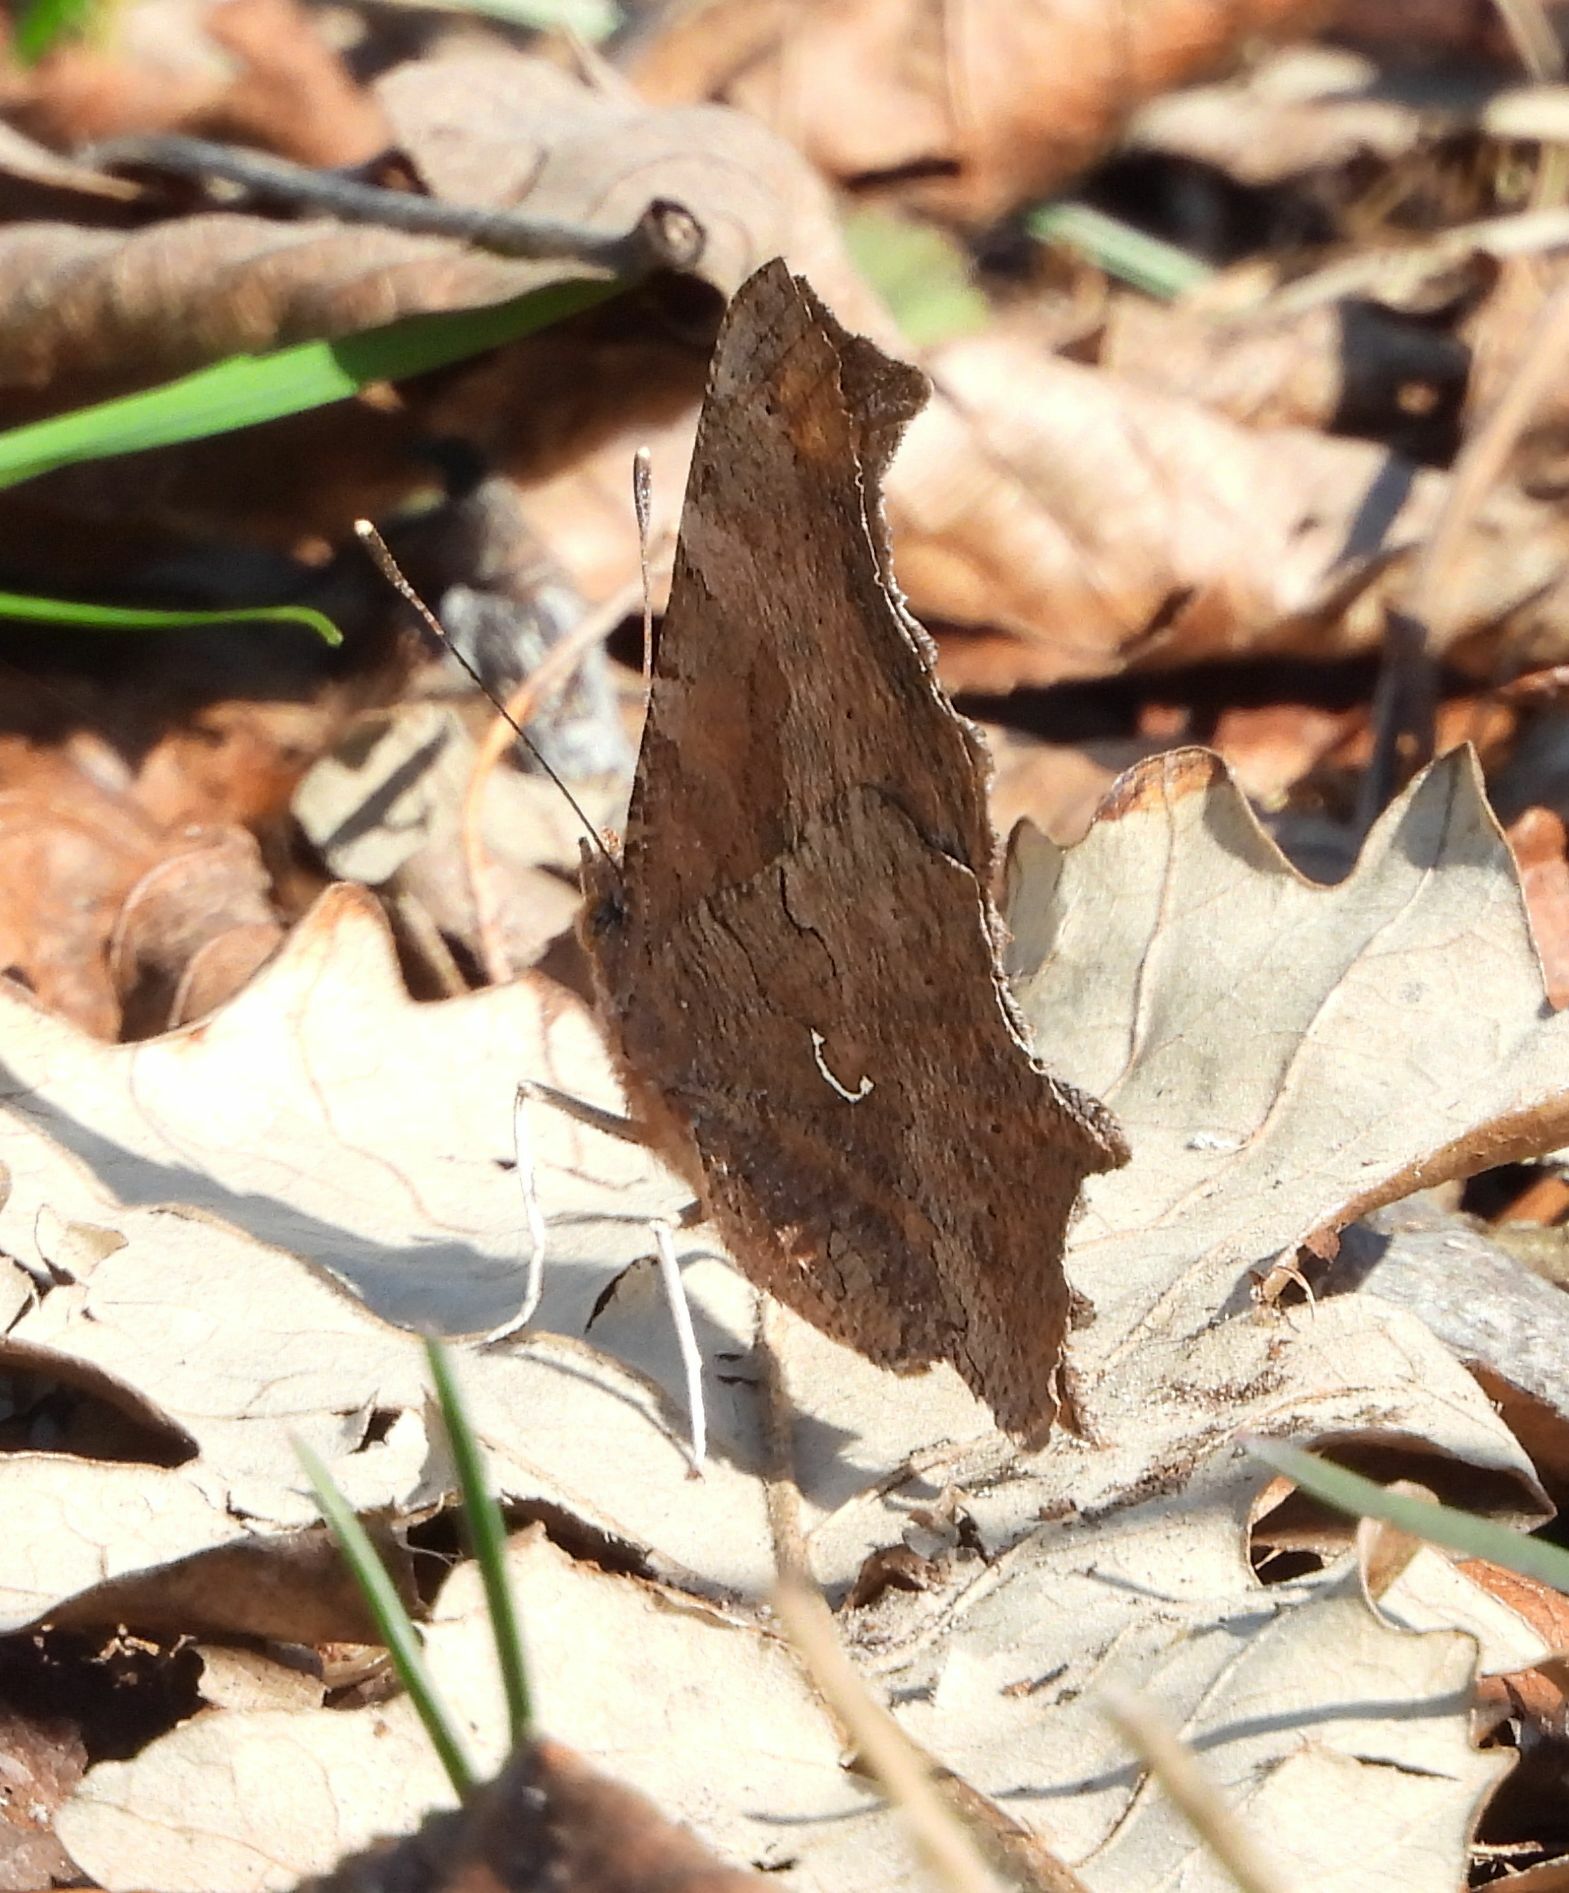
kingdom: Animalia
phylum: Arthropoda
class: Insecta
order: Lepidoptera
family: Nymphalidae
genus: Polygonia
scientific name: Polygonia comma
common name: Eastern comma
